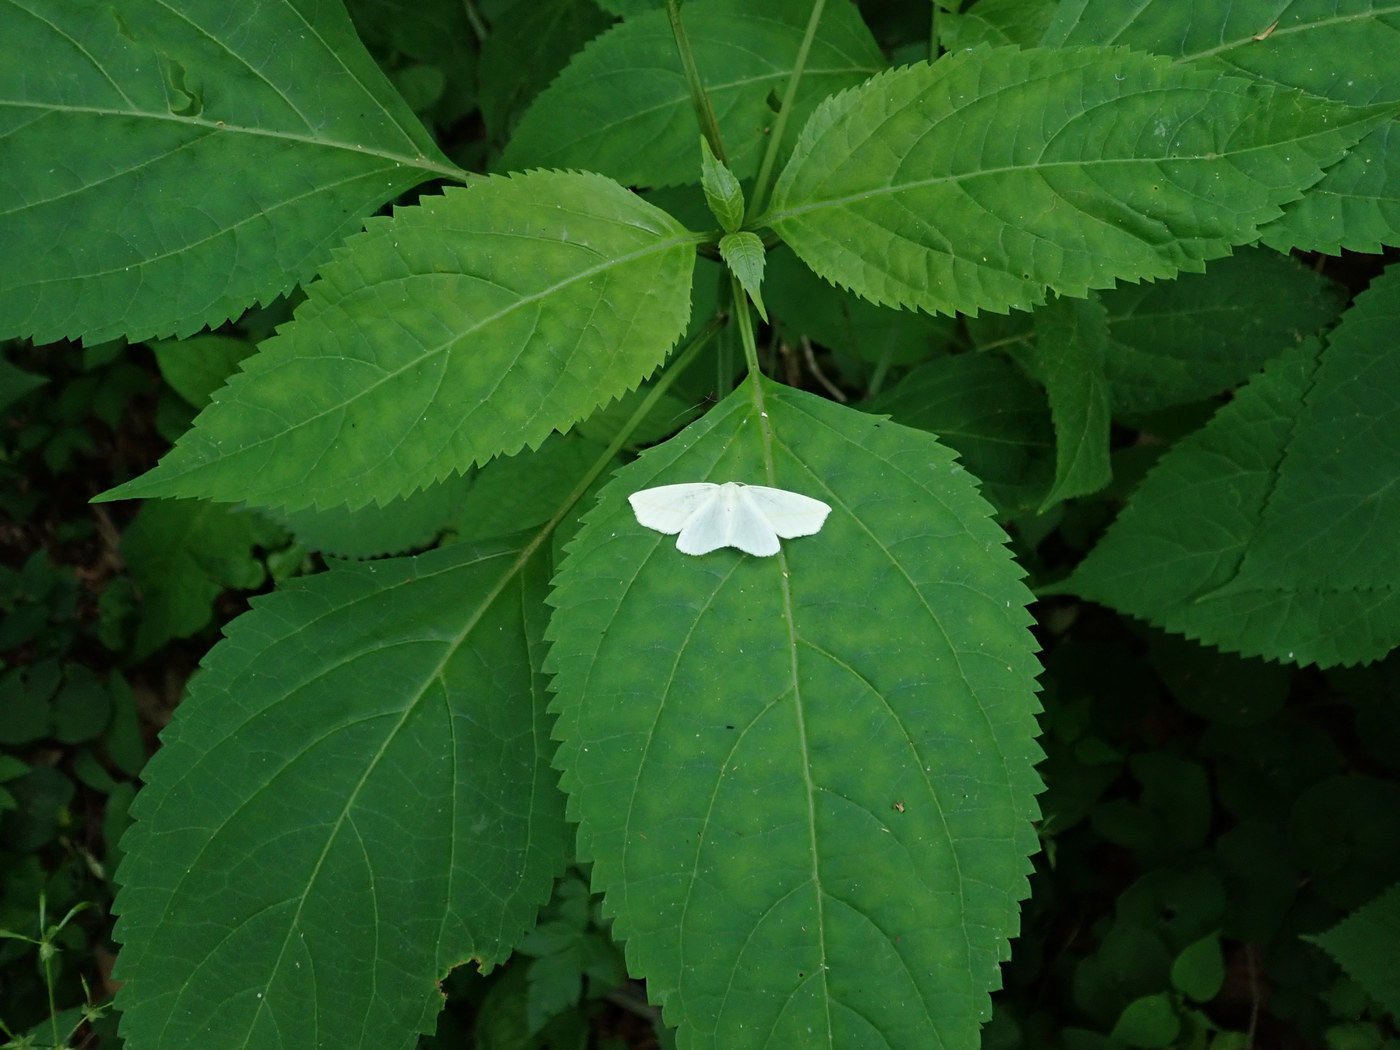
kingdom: Animalia
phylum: Arthropoda
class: Insecta
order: Lepidoptera
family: Geometridae
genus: Tetracis
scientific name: Tetracis cachexiata
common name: White slant-line
